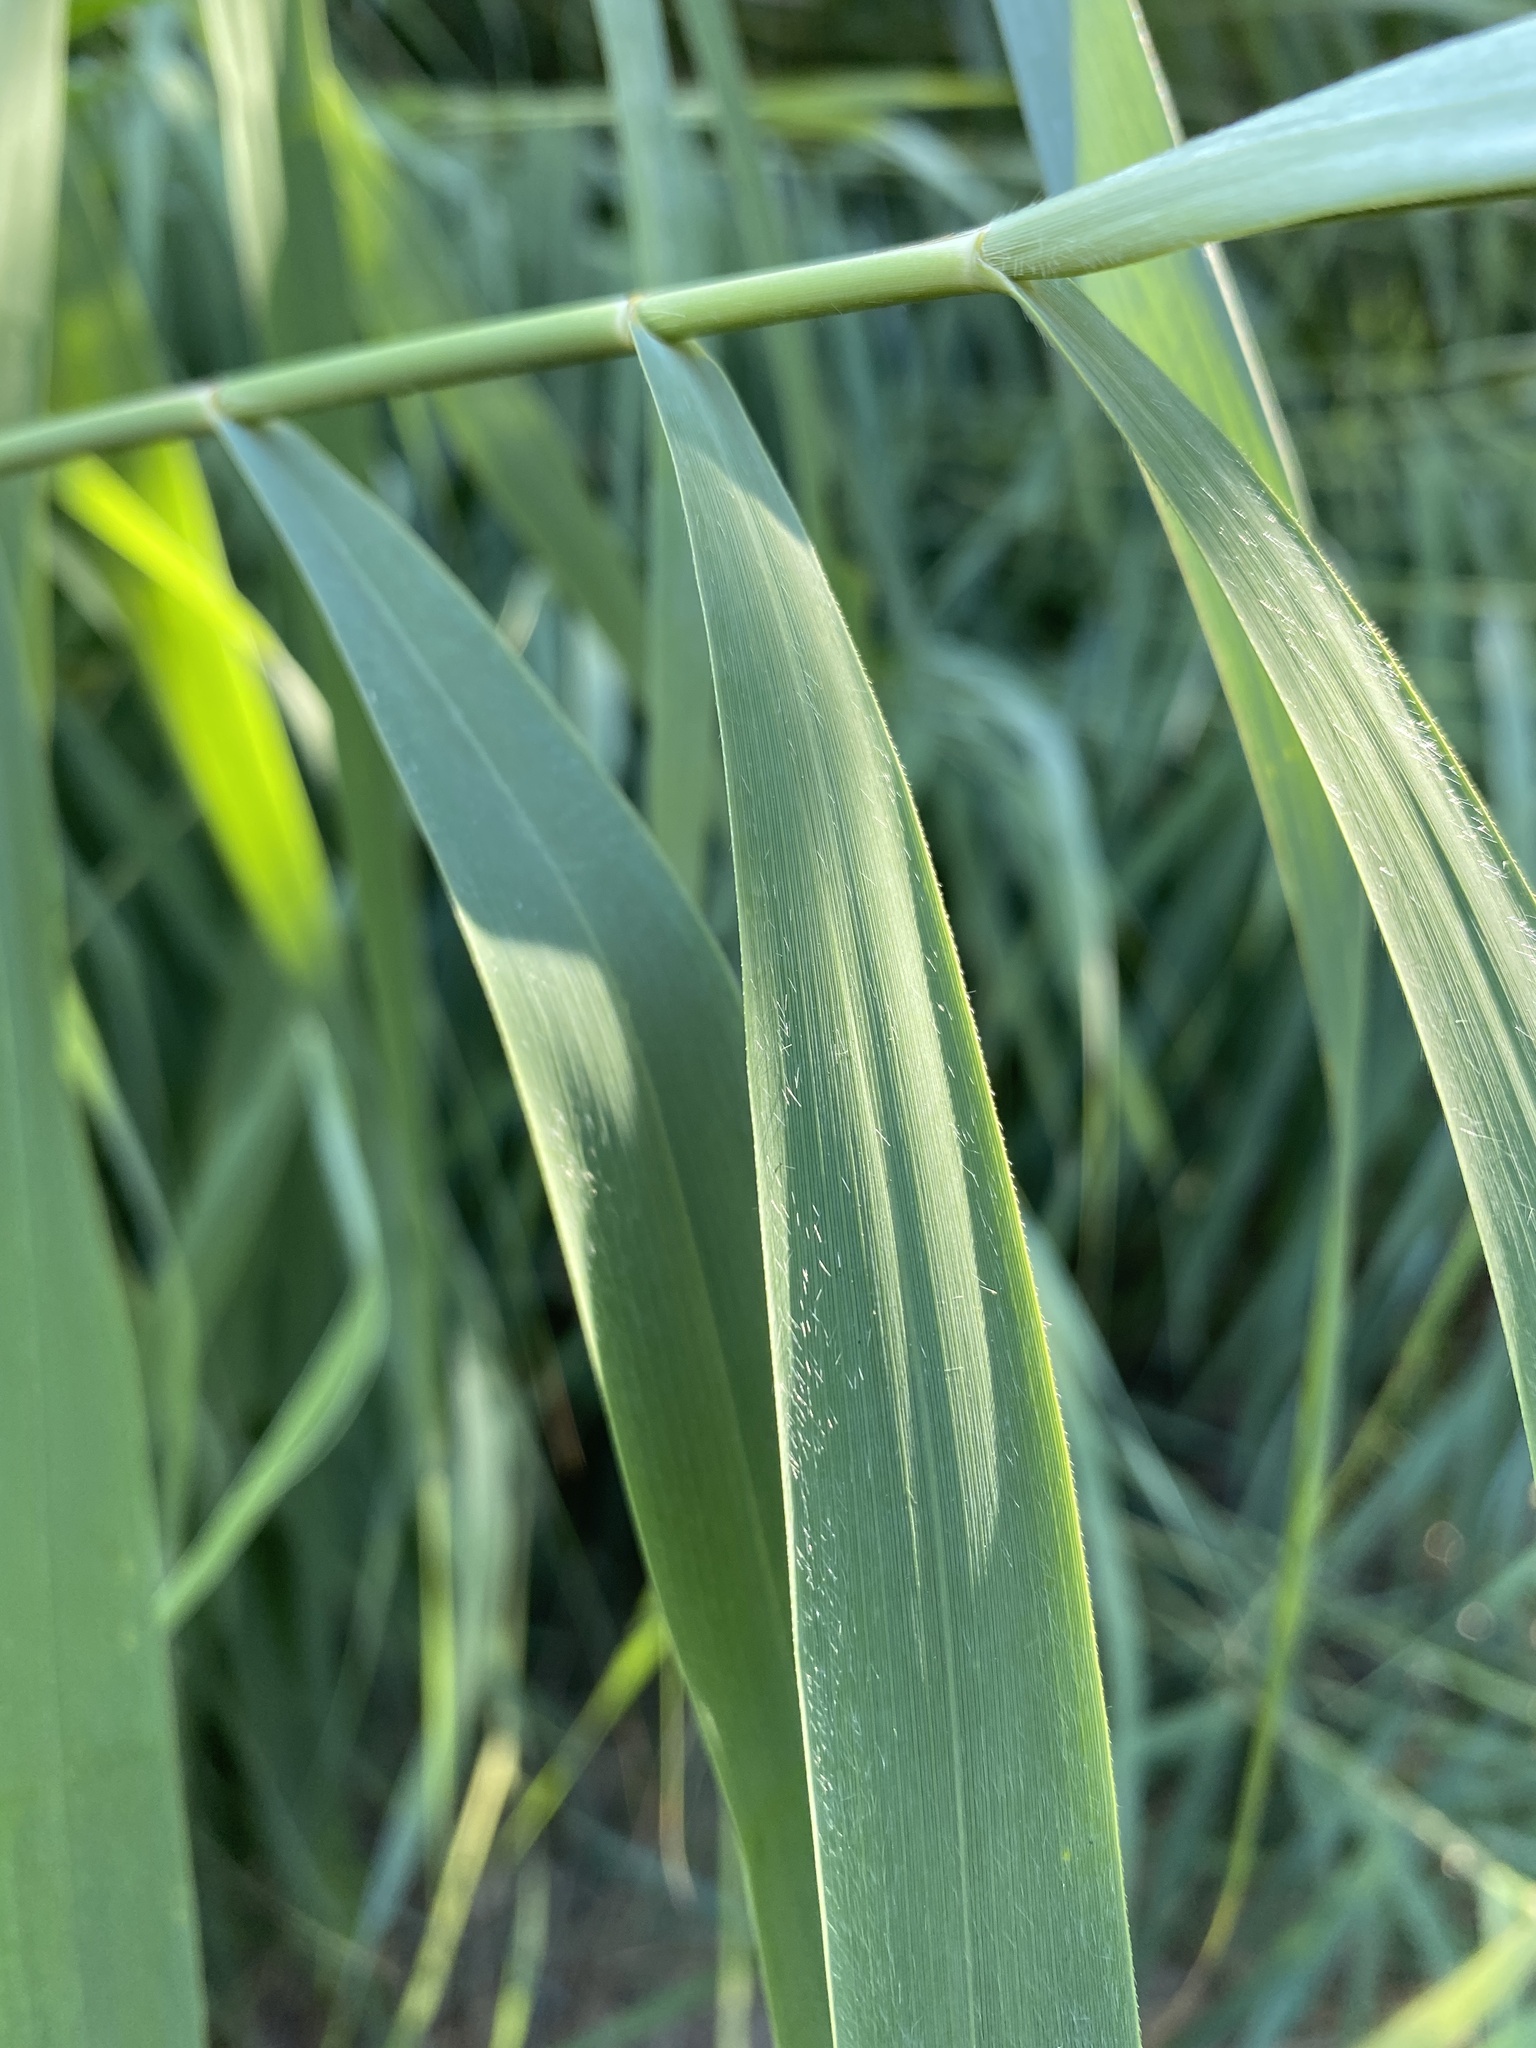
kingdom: Plantae
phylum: Tracheophyta
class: Liliopsida
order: Poales
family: Poaceae
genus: Phragmites
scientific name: Phragmites australis
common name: Common reed
